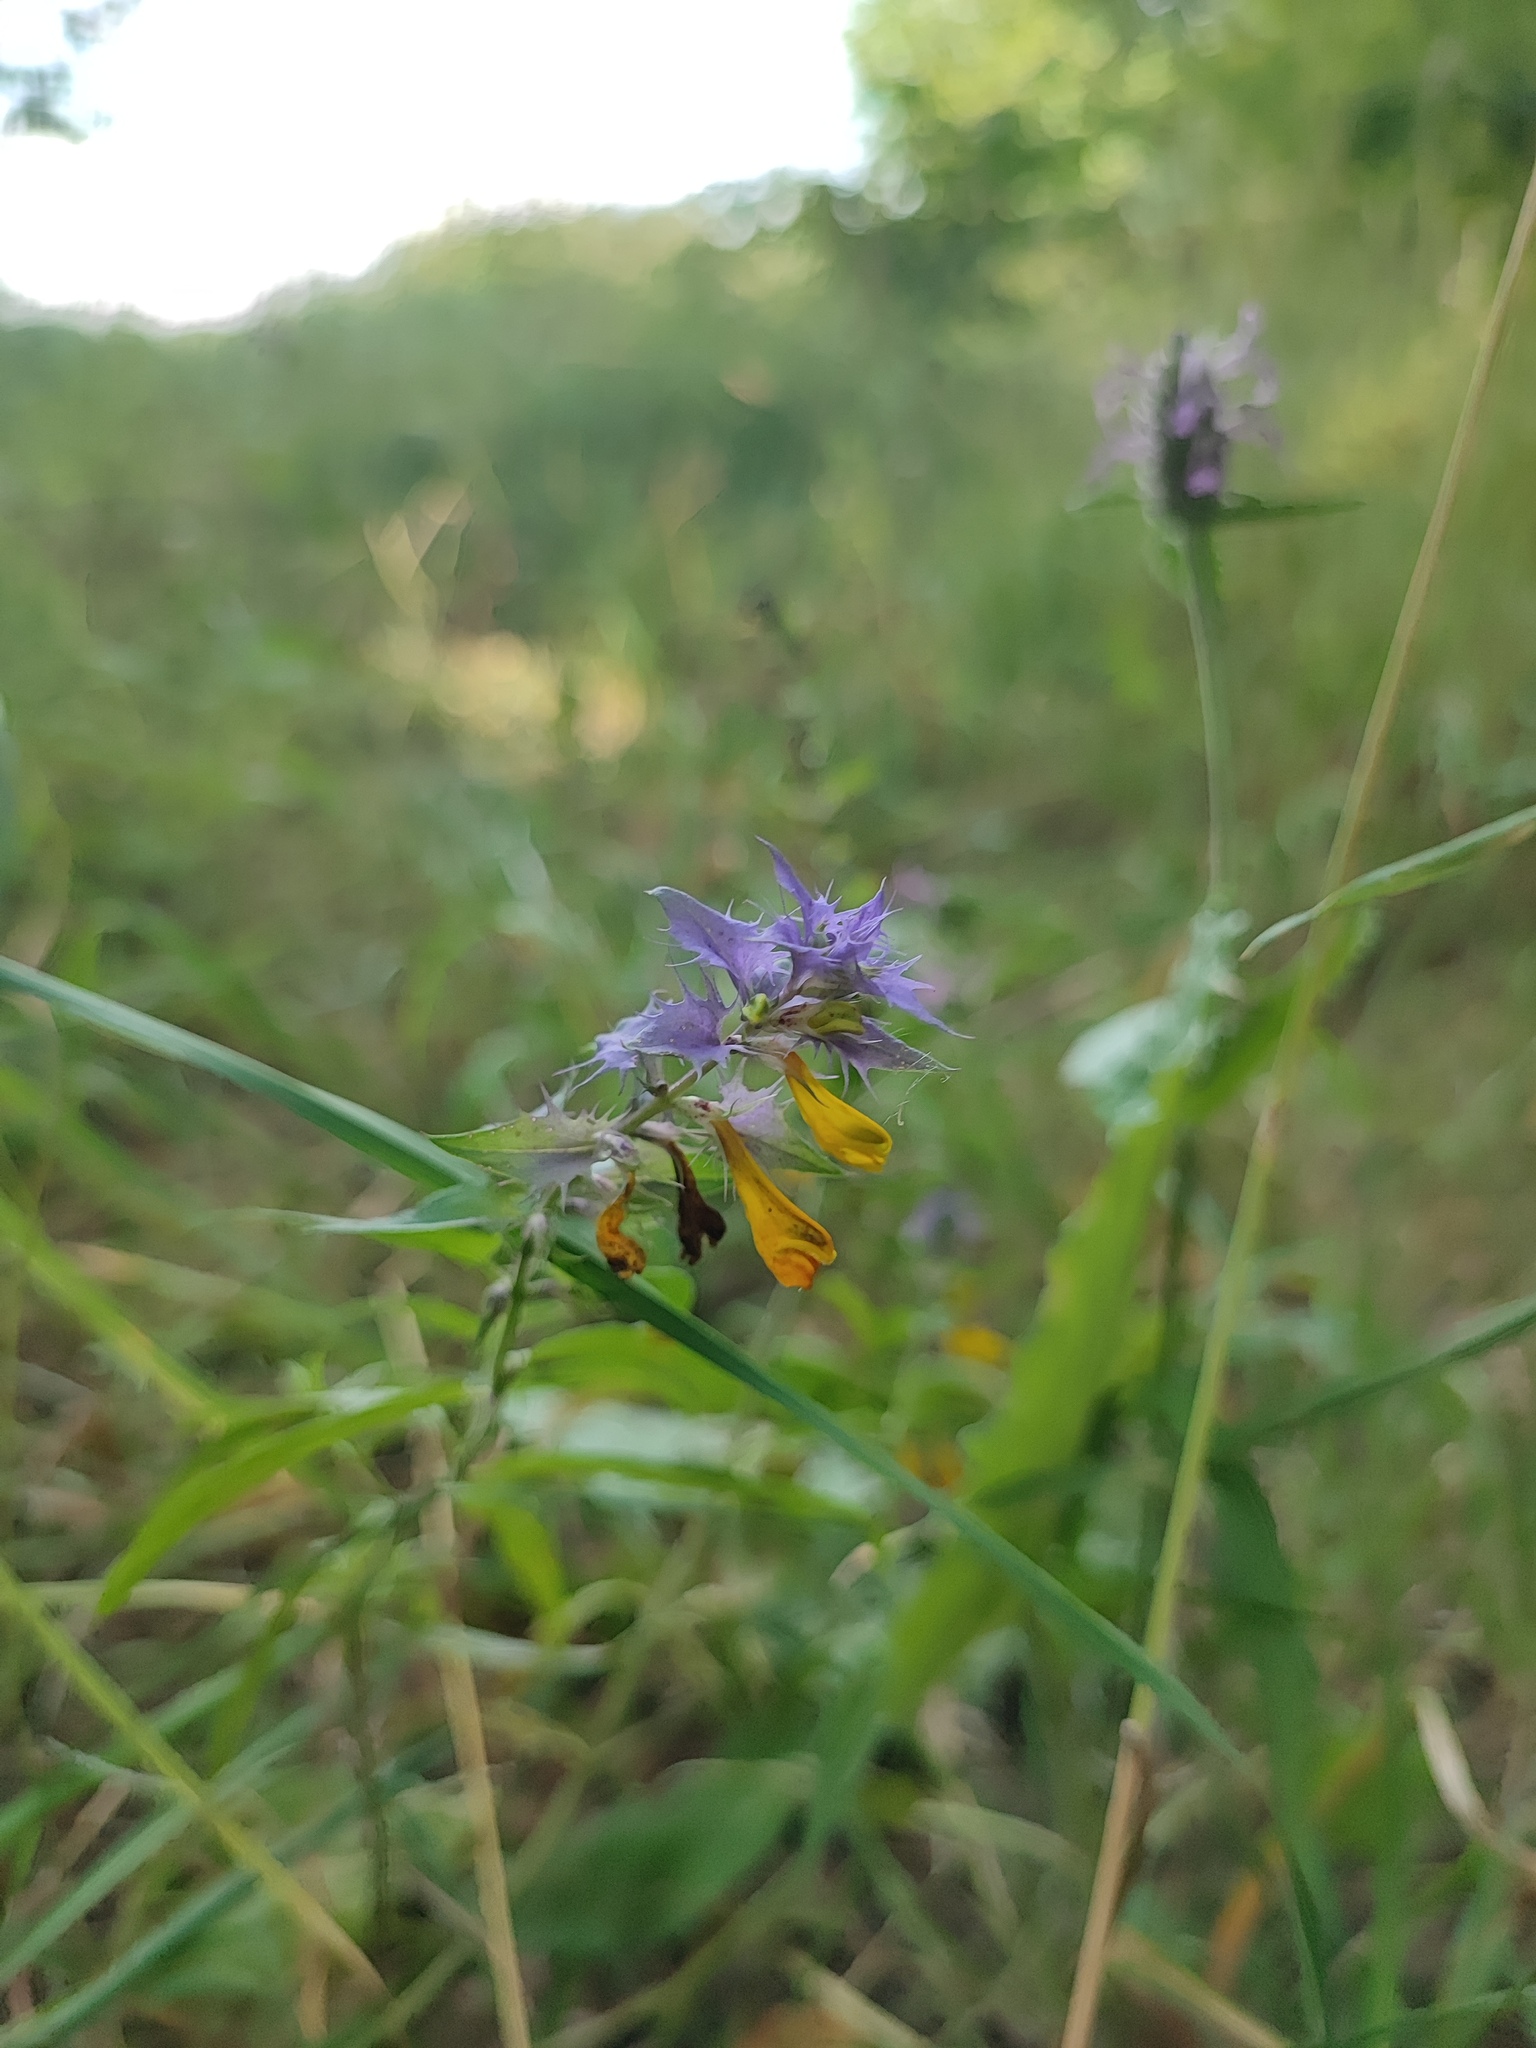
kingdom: Plantae
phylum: Tracheophyta
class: Magnoliopsida
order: Lamiales
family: Orobanchaceae
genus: Melampyrum
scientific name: Melampyrum nemorosum
